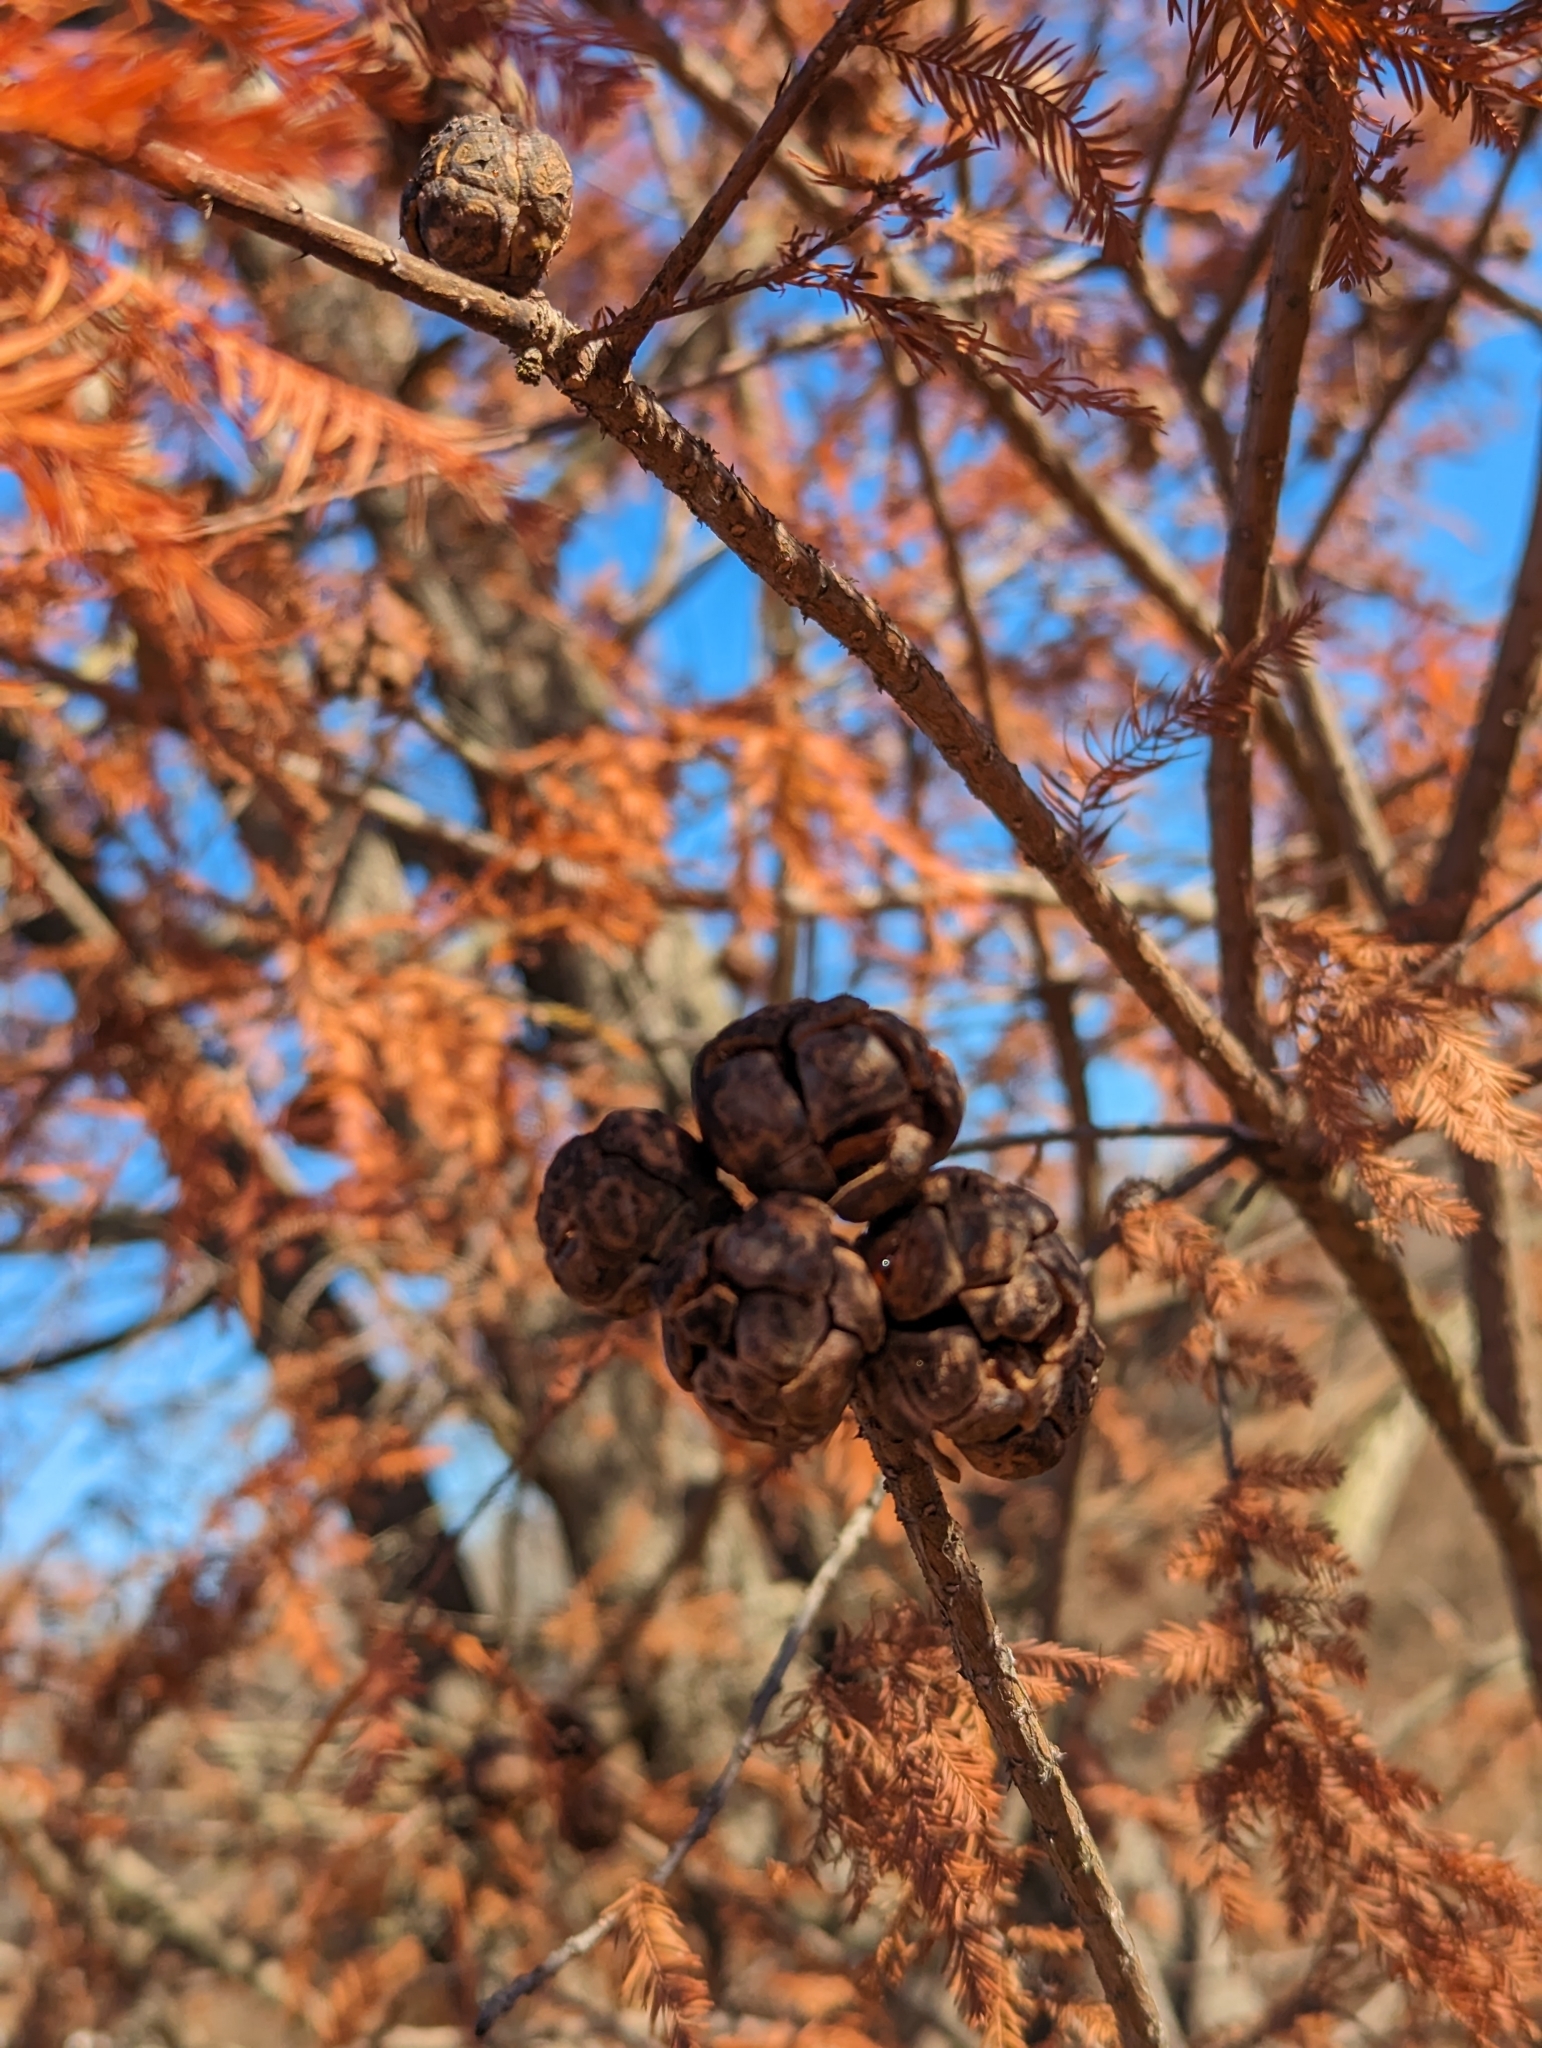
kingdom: Plantae
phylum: Tracheophyta
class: Pinopsida
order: Pinales
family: Cupressaceae
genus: Taxodium
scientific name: Taxodium distichum
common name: Bald cypress
